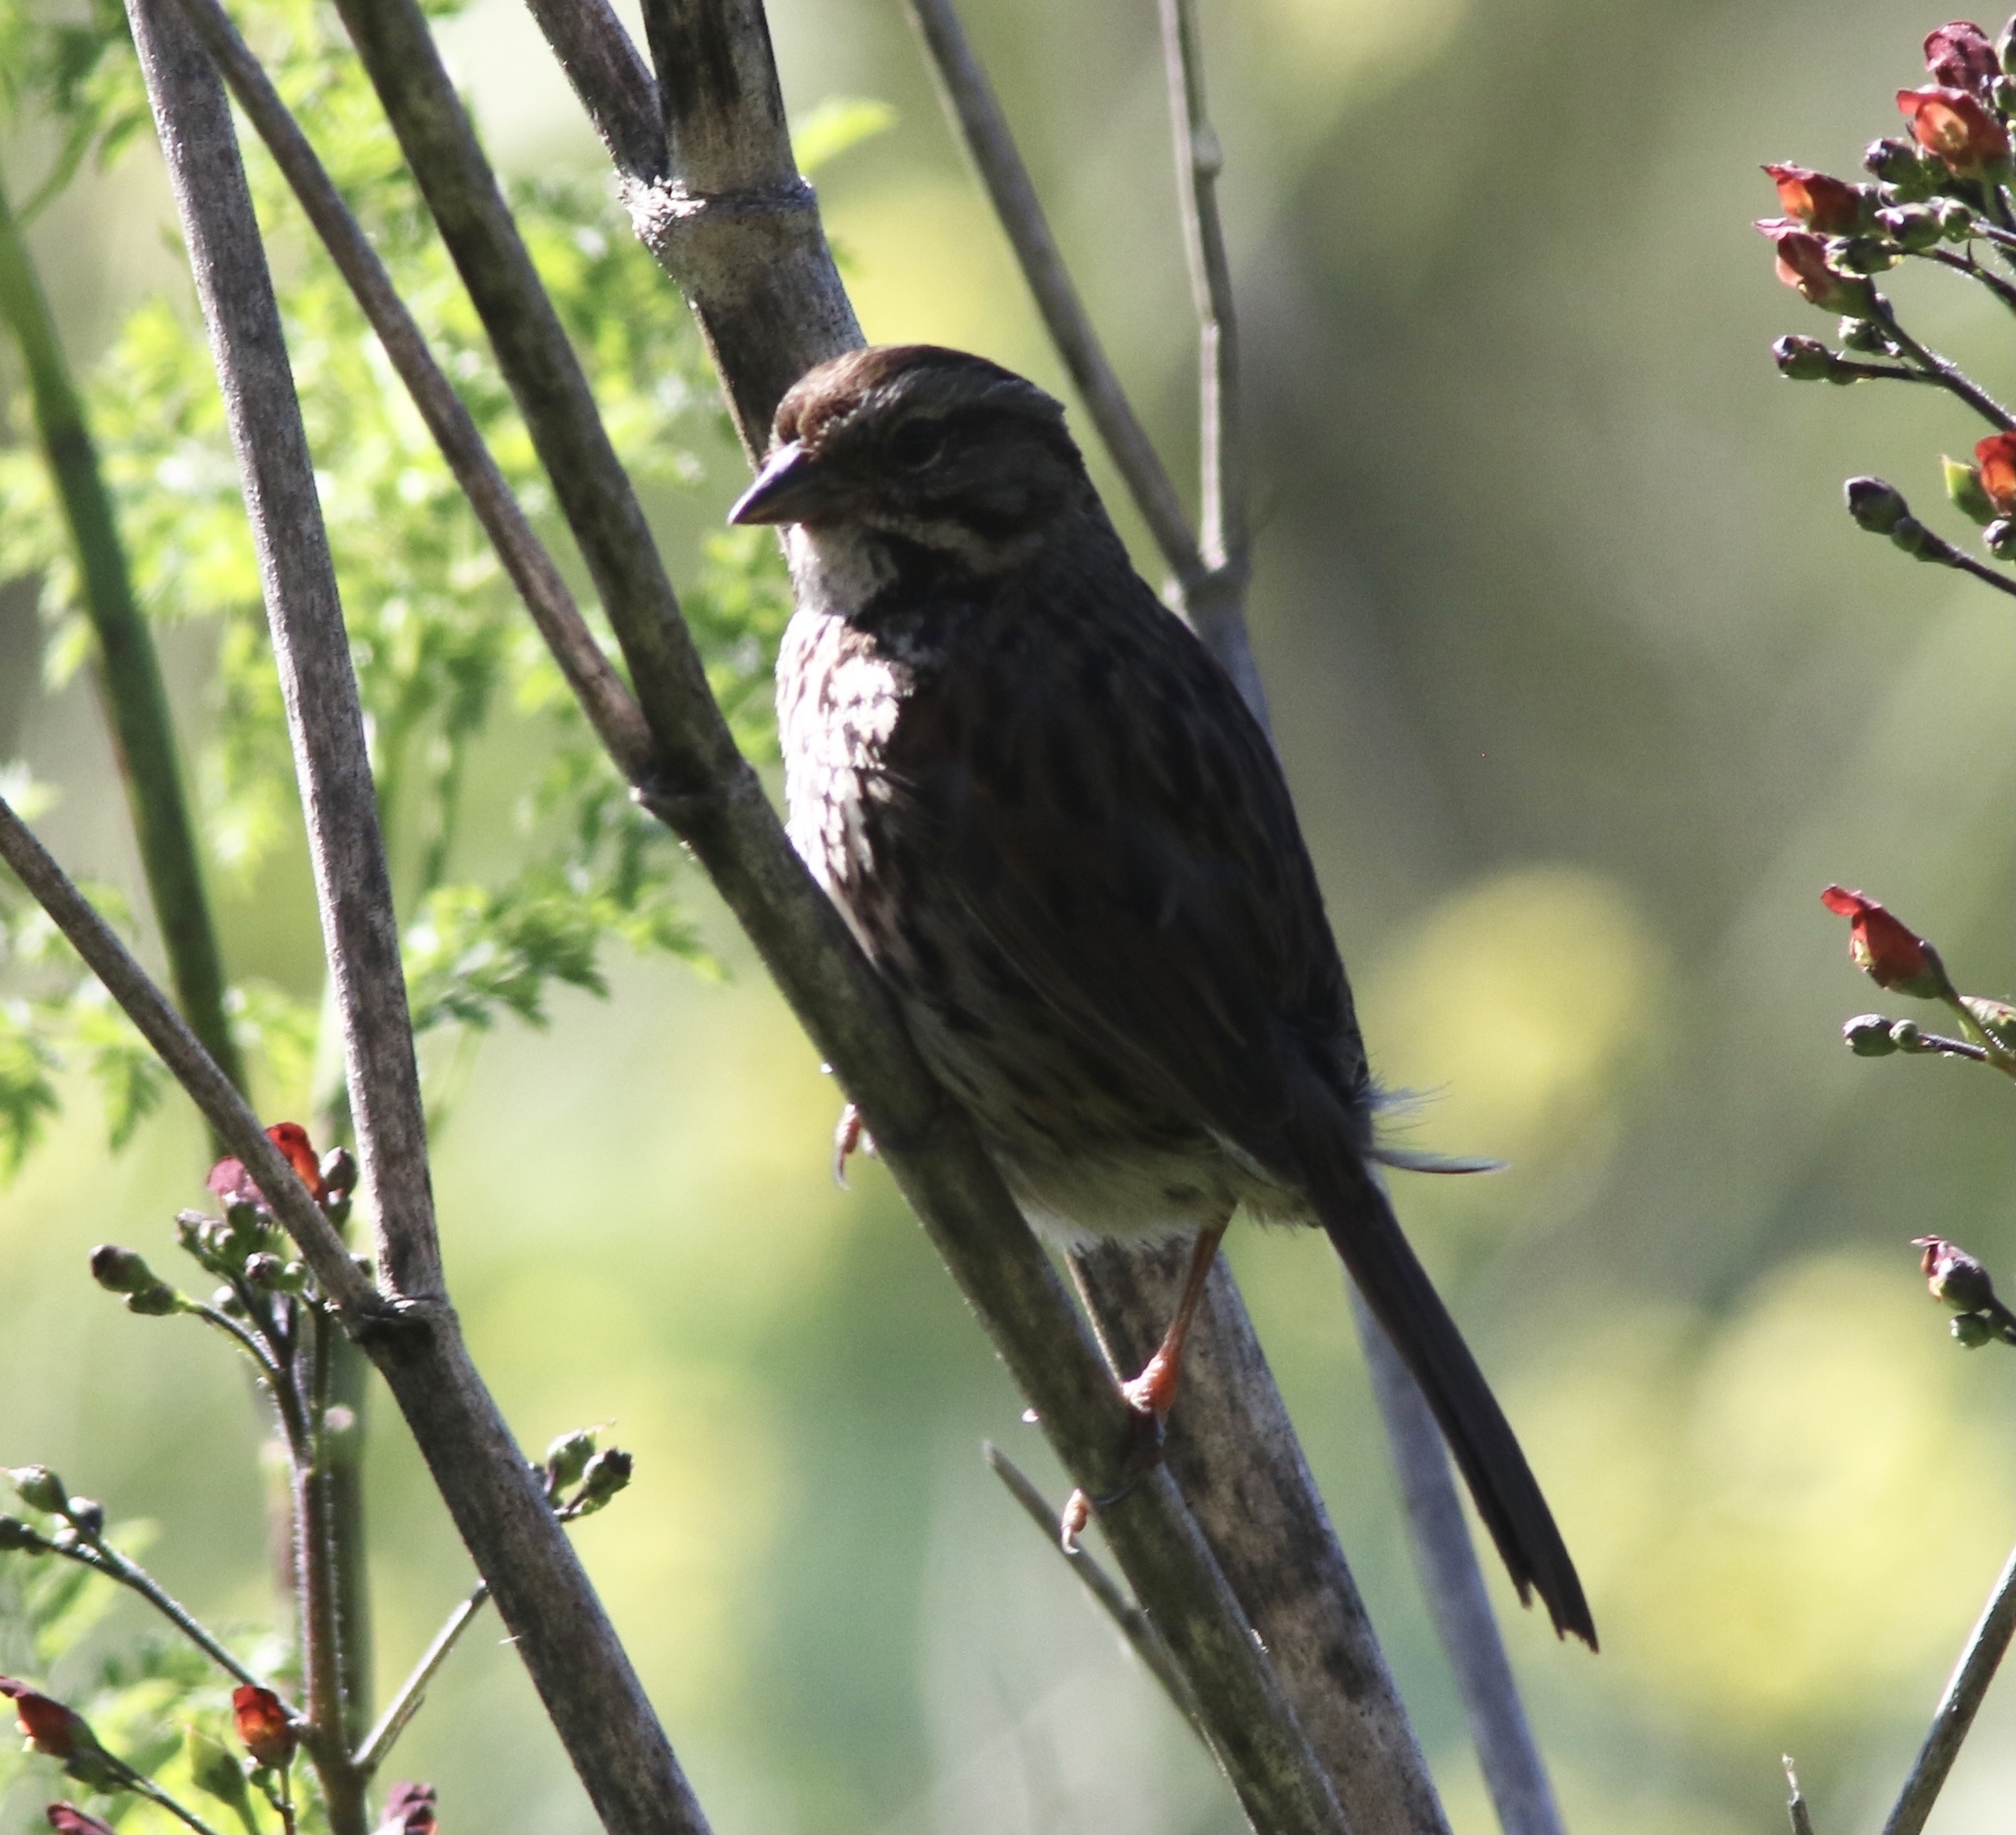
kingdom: Animalia
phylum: Chordata
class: Aves
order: Passeriformes
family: Passerellidae
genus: Melospiza
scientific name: Melospiza melodia
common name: Song sparrow
